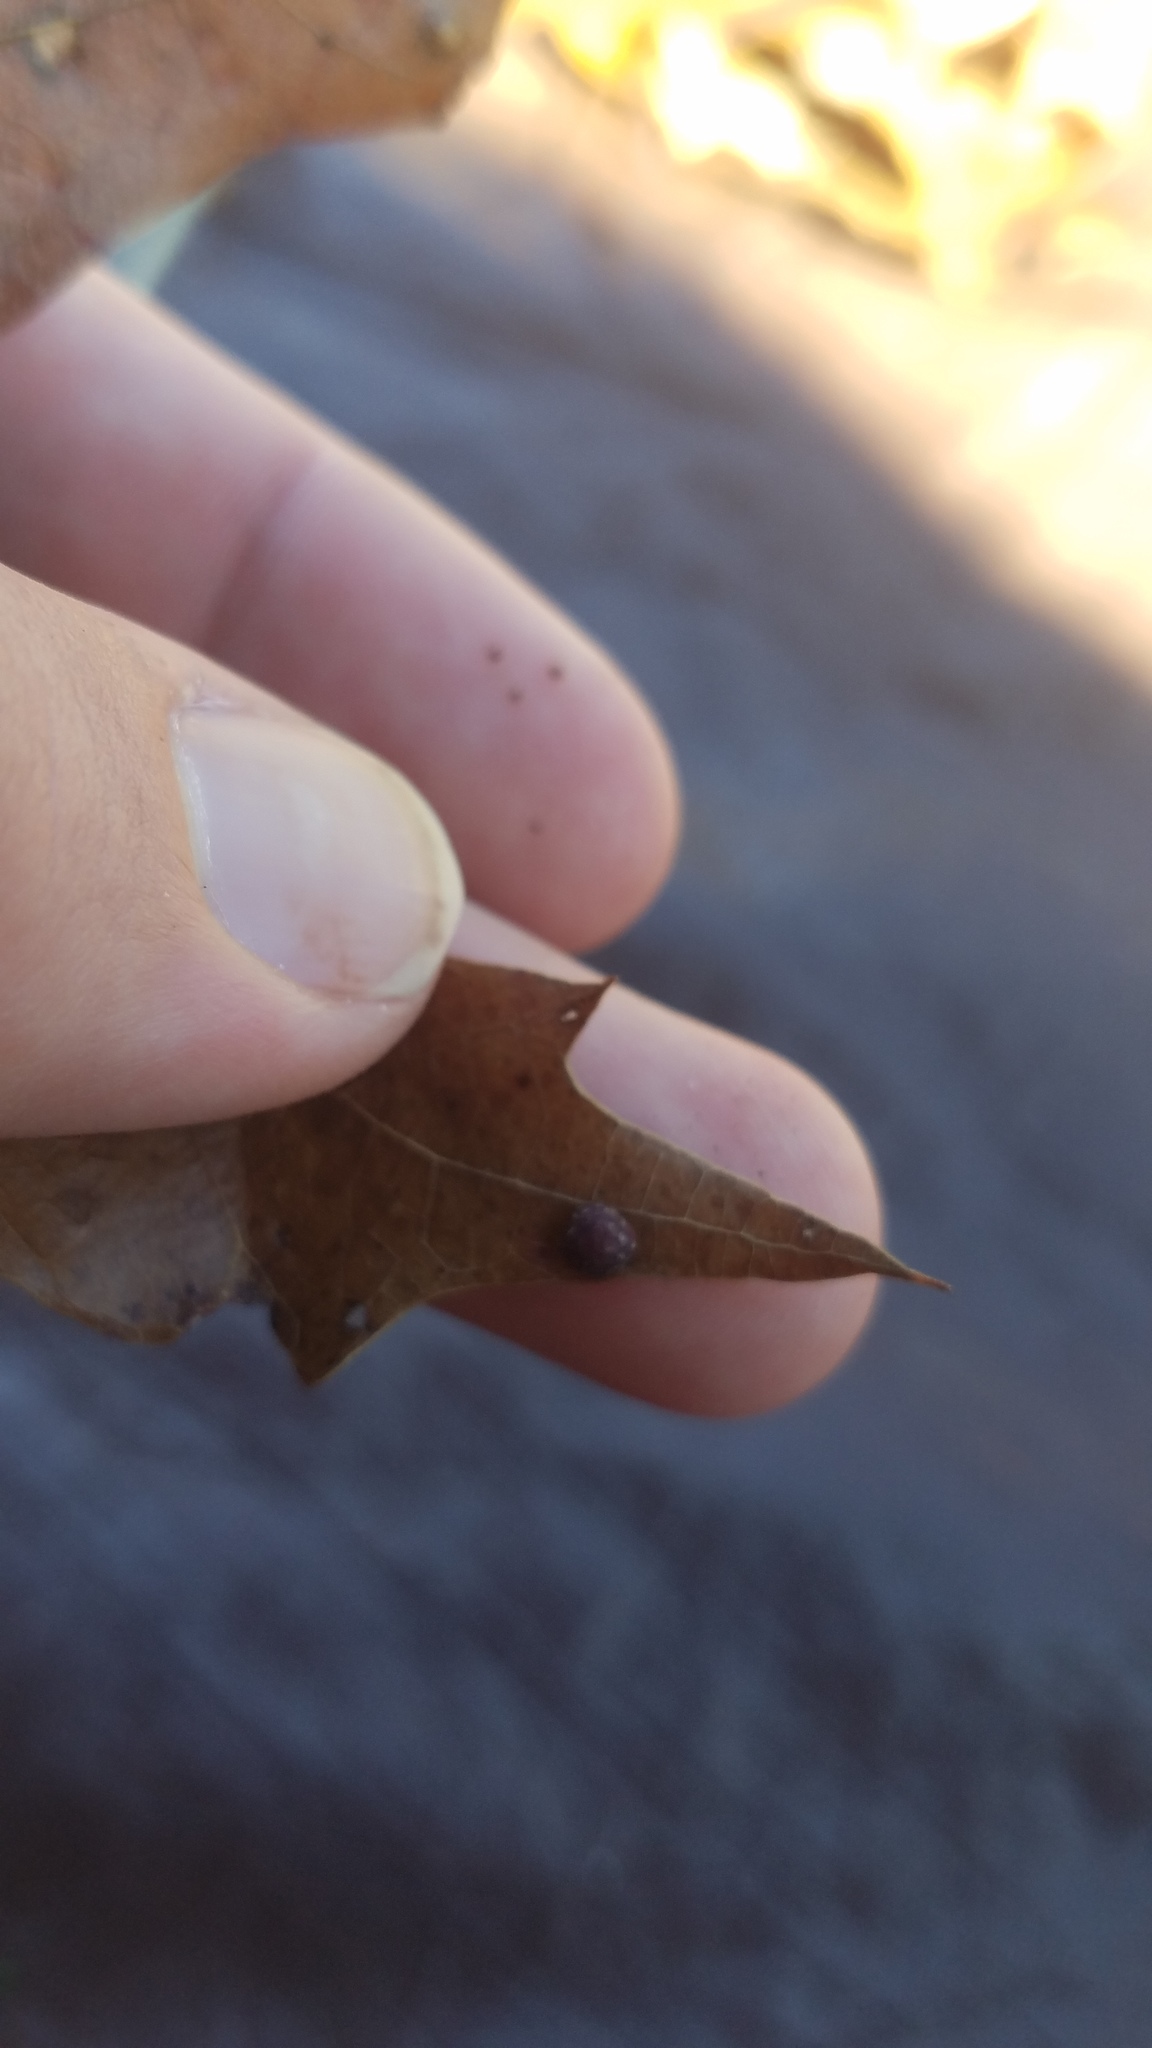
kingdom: Animalia
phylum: Arthropoda
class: Insecta
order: Diptera
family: Cecidomyiidae
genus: Polystepha
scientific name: Polystepha pilulae
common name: Oak leaf gall midge
